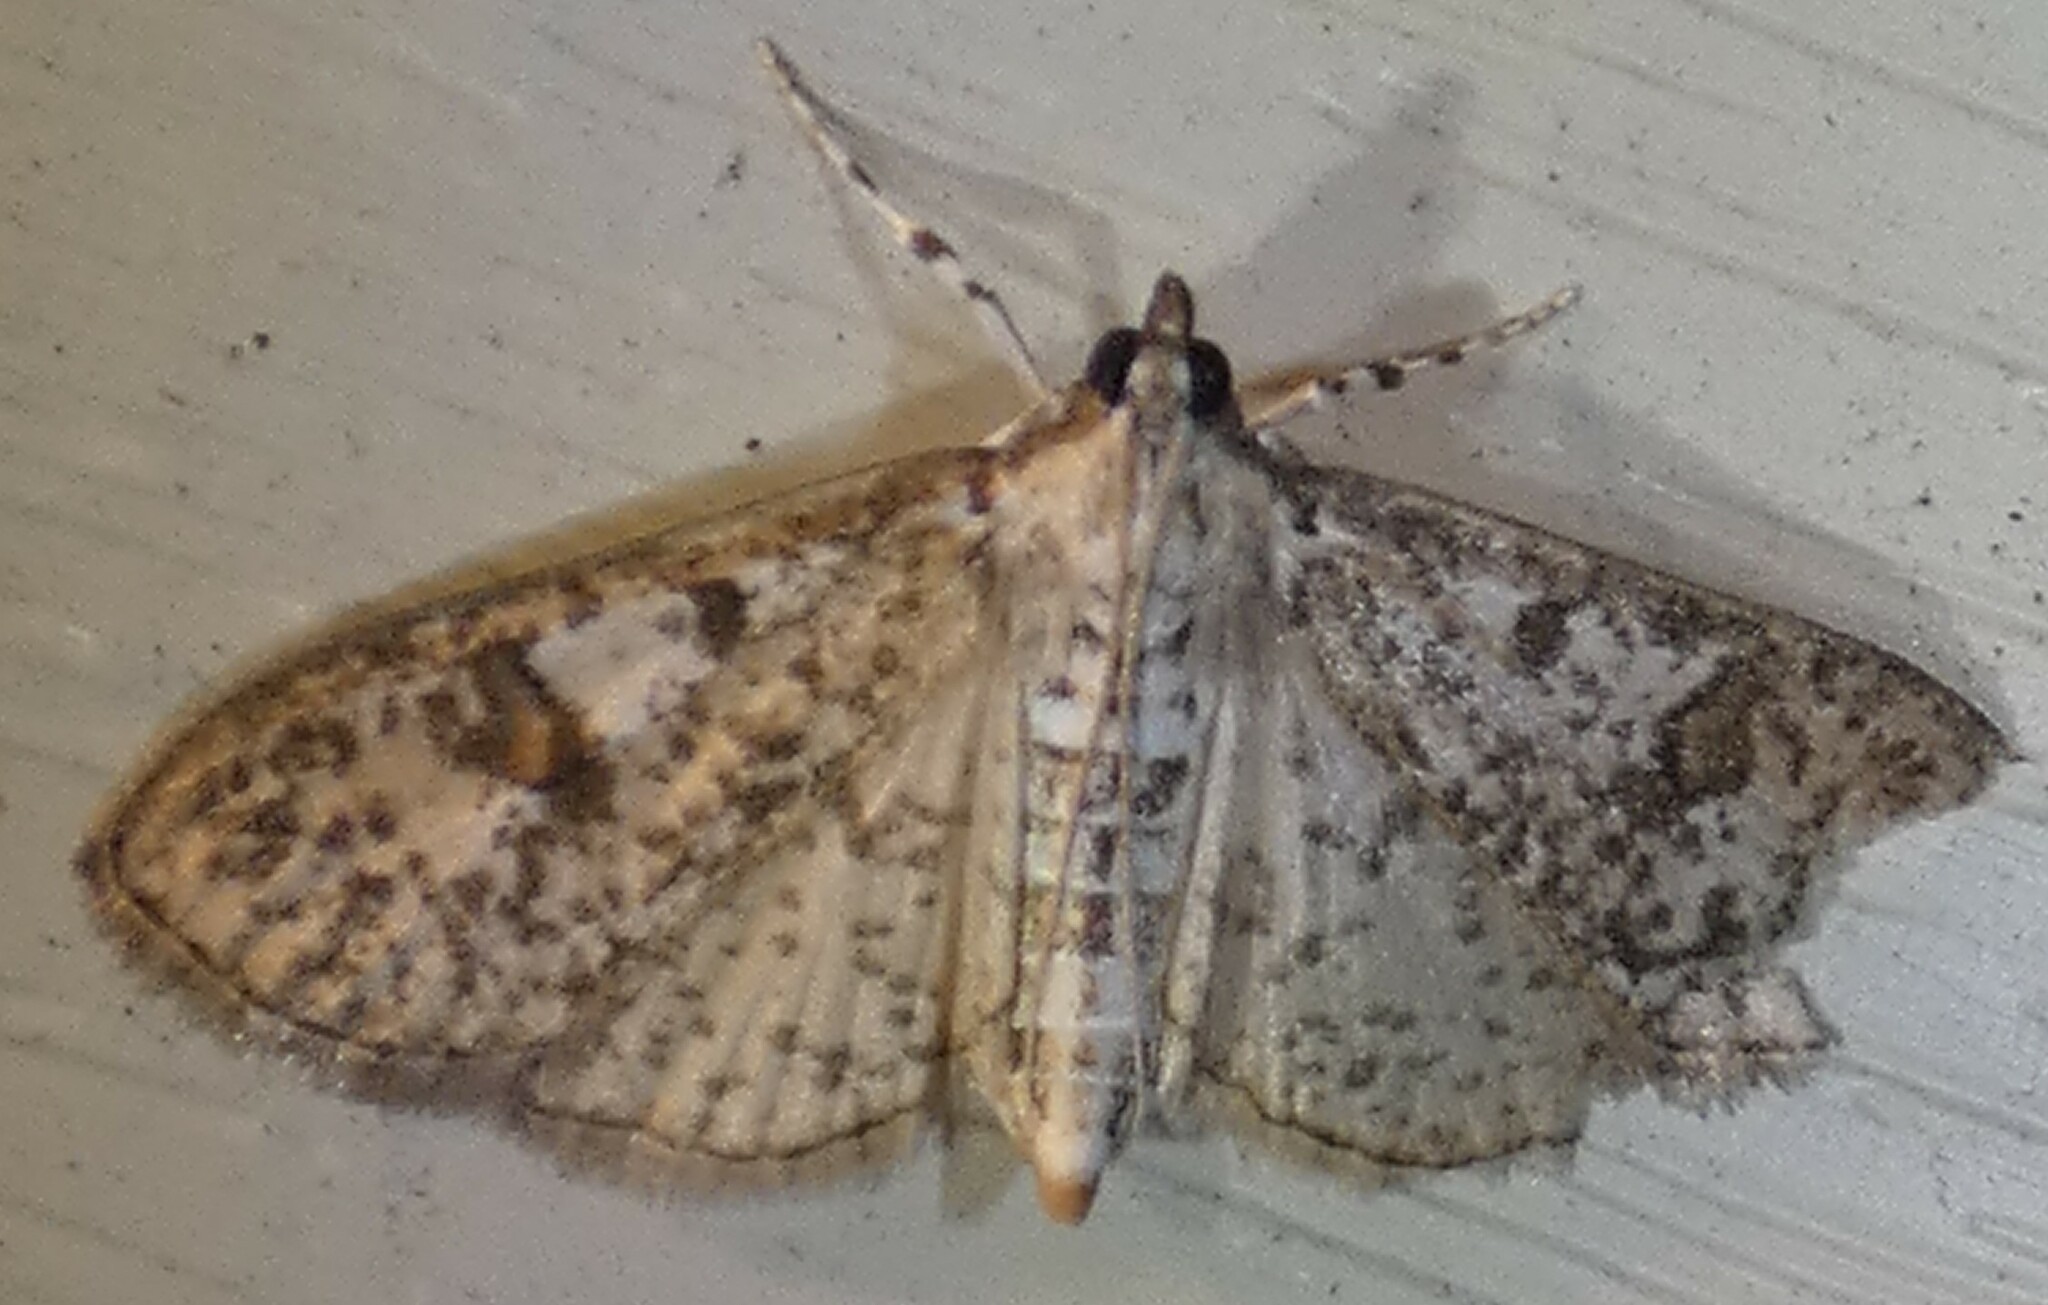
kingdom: Animalia
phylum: Arthropoda
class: Insecta
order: Lepidoptera
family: Crambidae
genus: Palpita
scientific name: Palpita freemanalis
